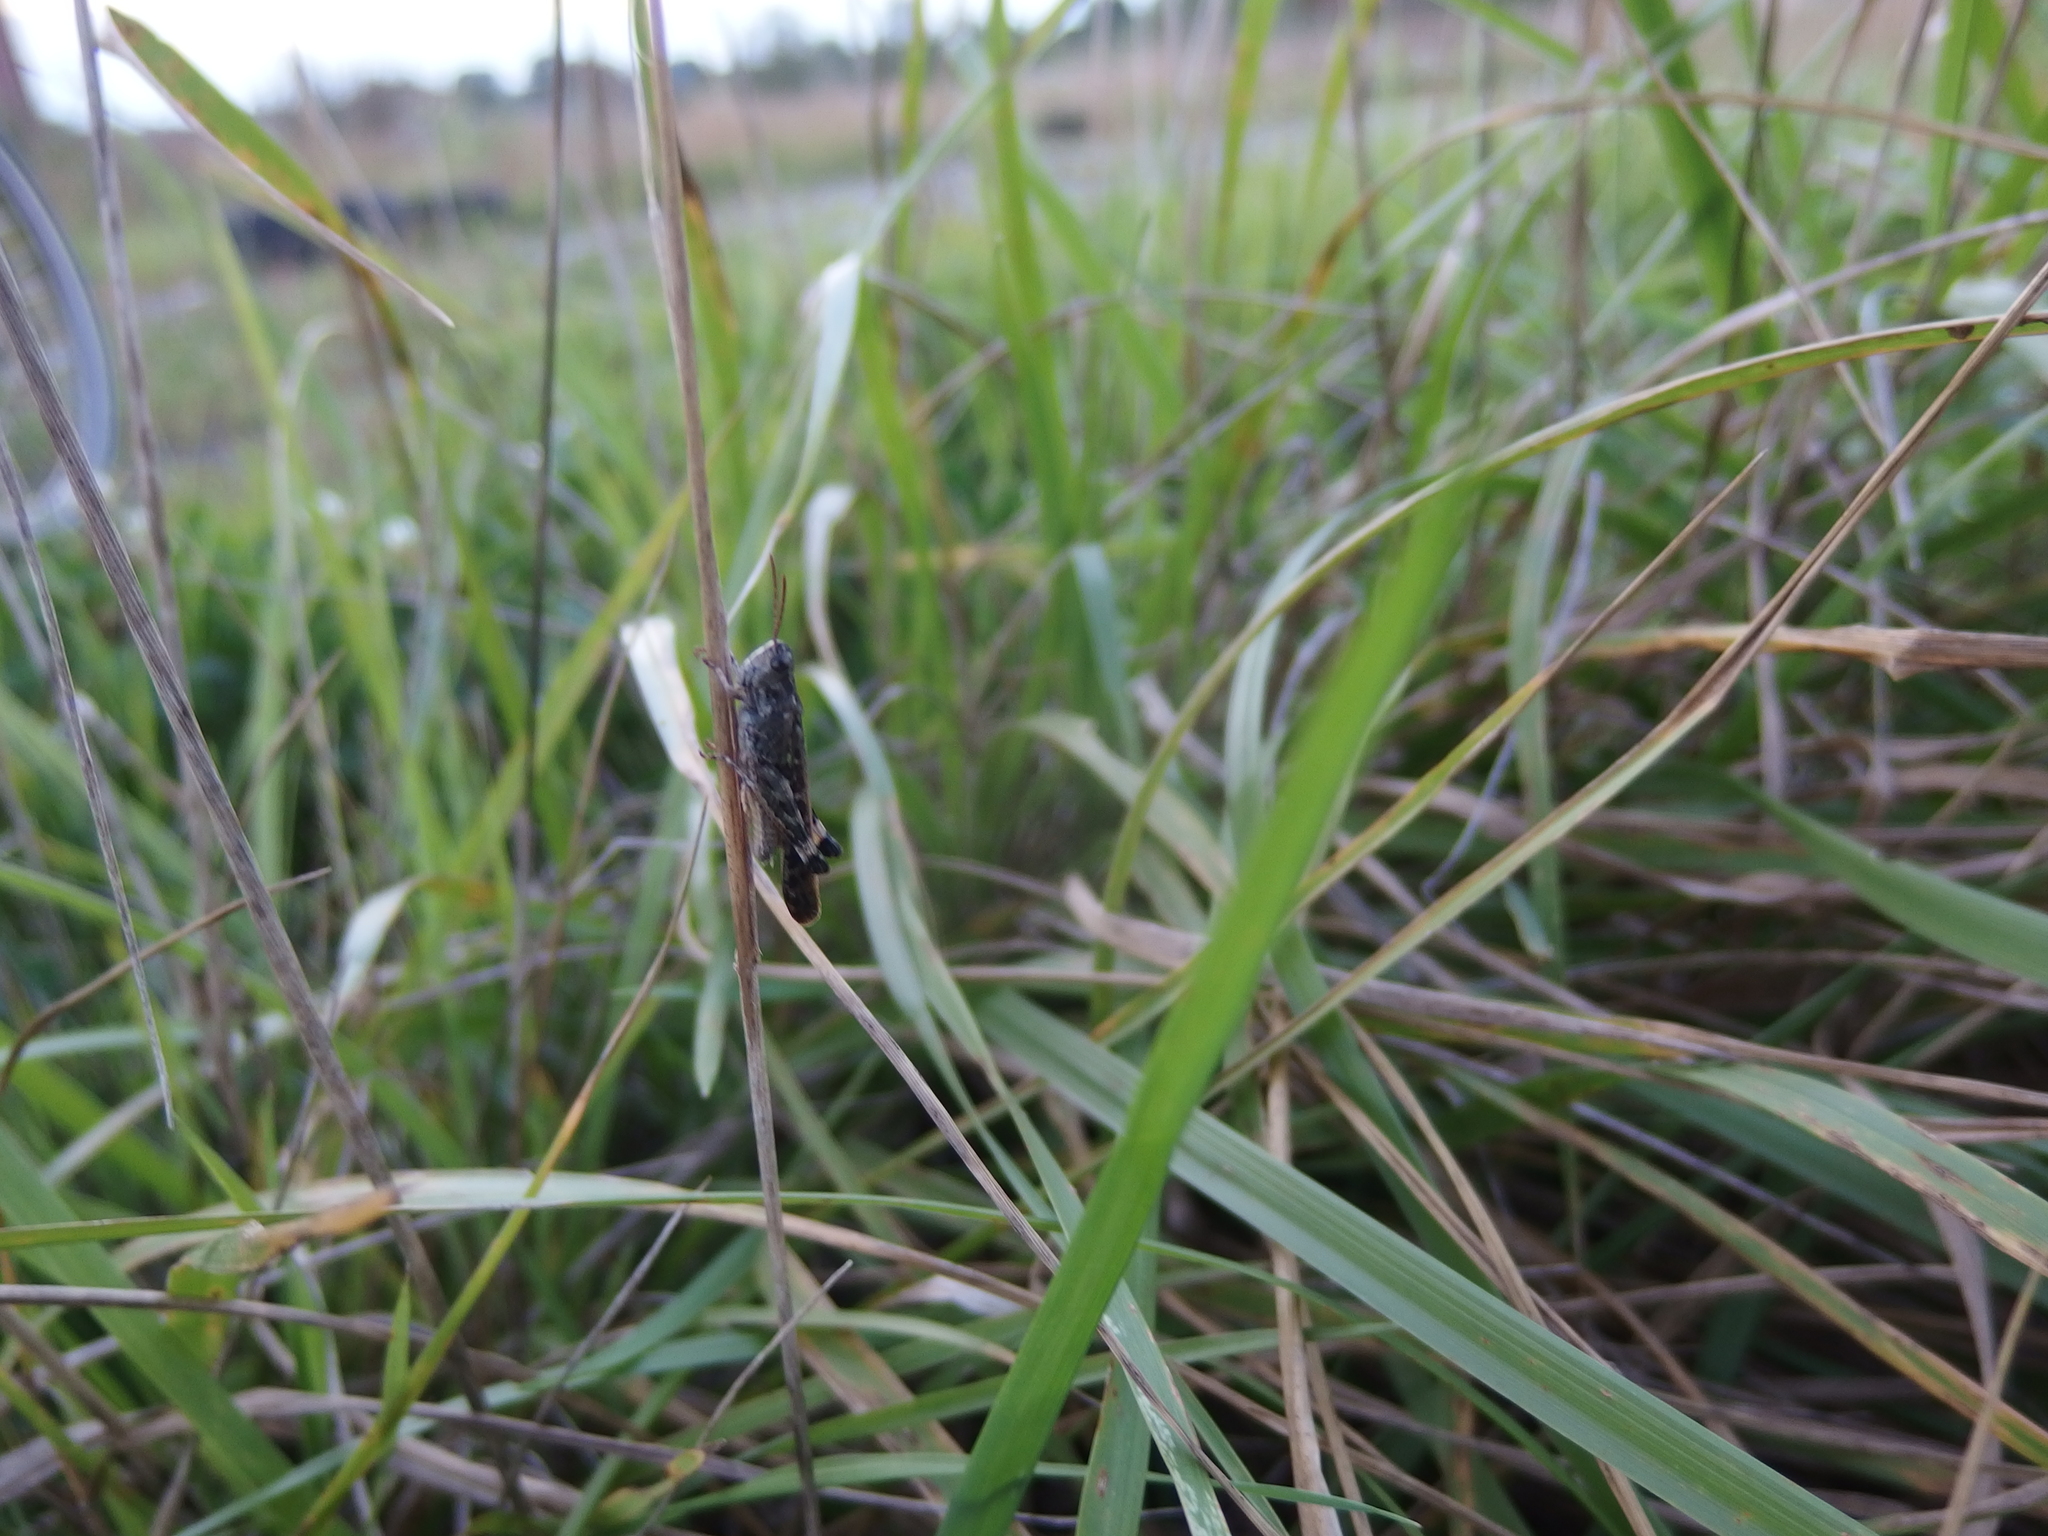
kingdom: Animalia
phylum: Arthropoda
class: Insecta
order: Orthoptera
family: Acrididae
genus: Aiolopus
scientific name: Aiolopus thalassinus
